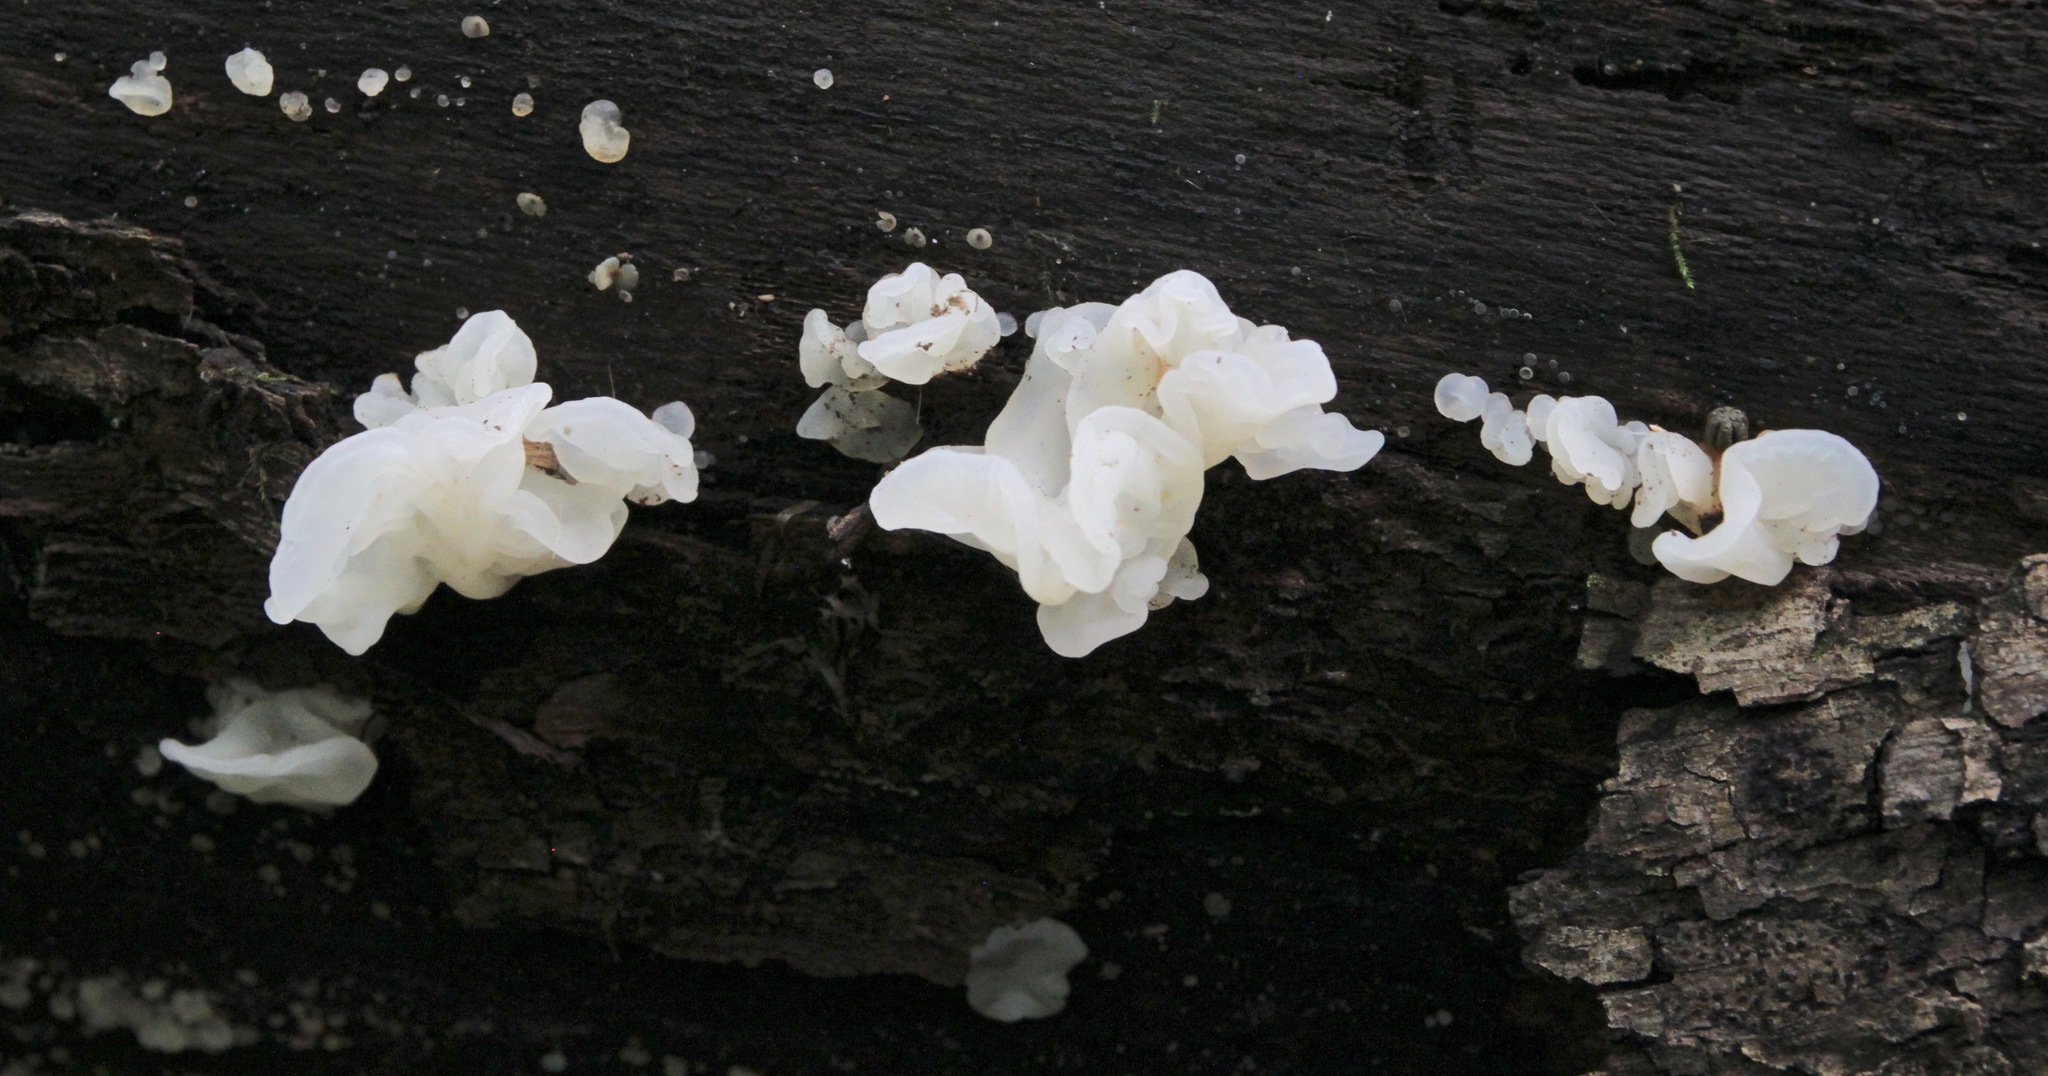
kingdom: Fungi
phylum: Basidiomycota
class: Agaricomycetes
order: Auriculariales
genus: Ductifera
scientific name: Ductifera pululahuana
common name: White jelly fungus
